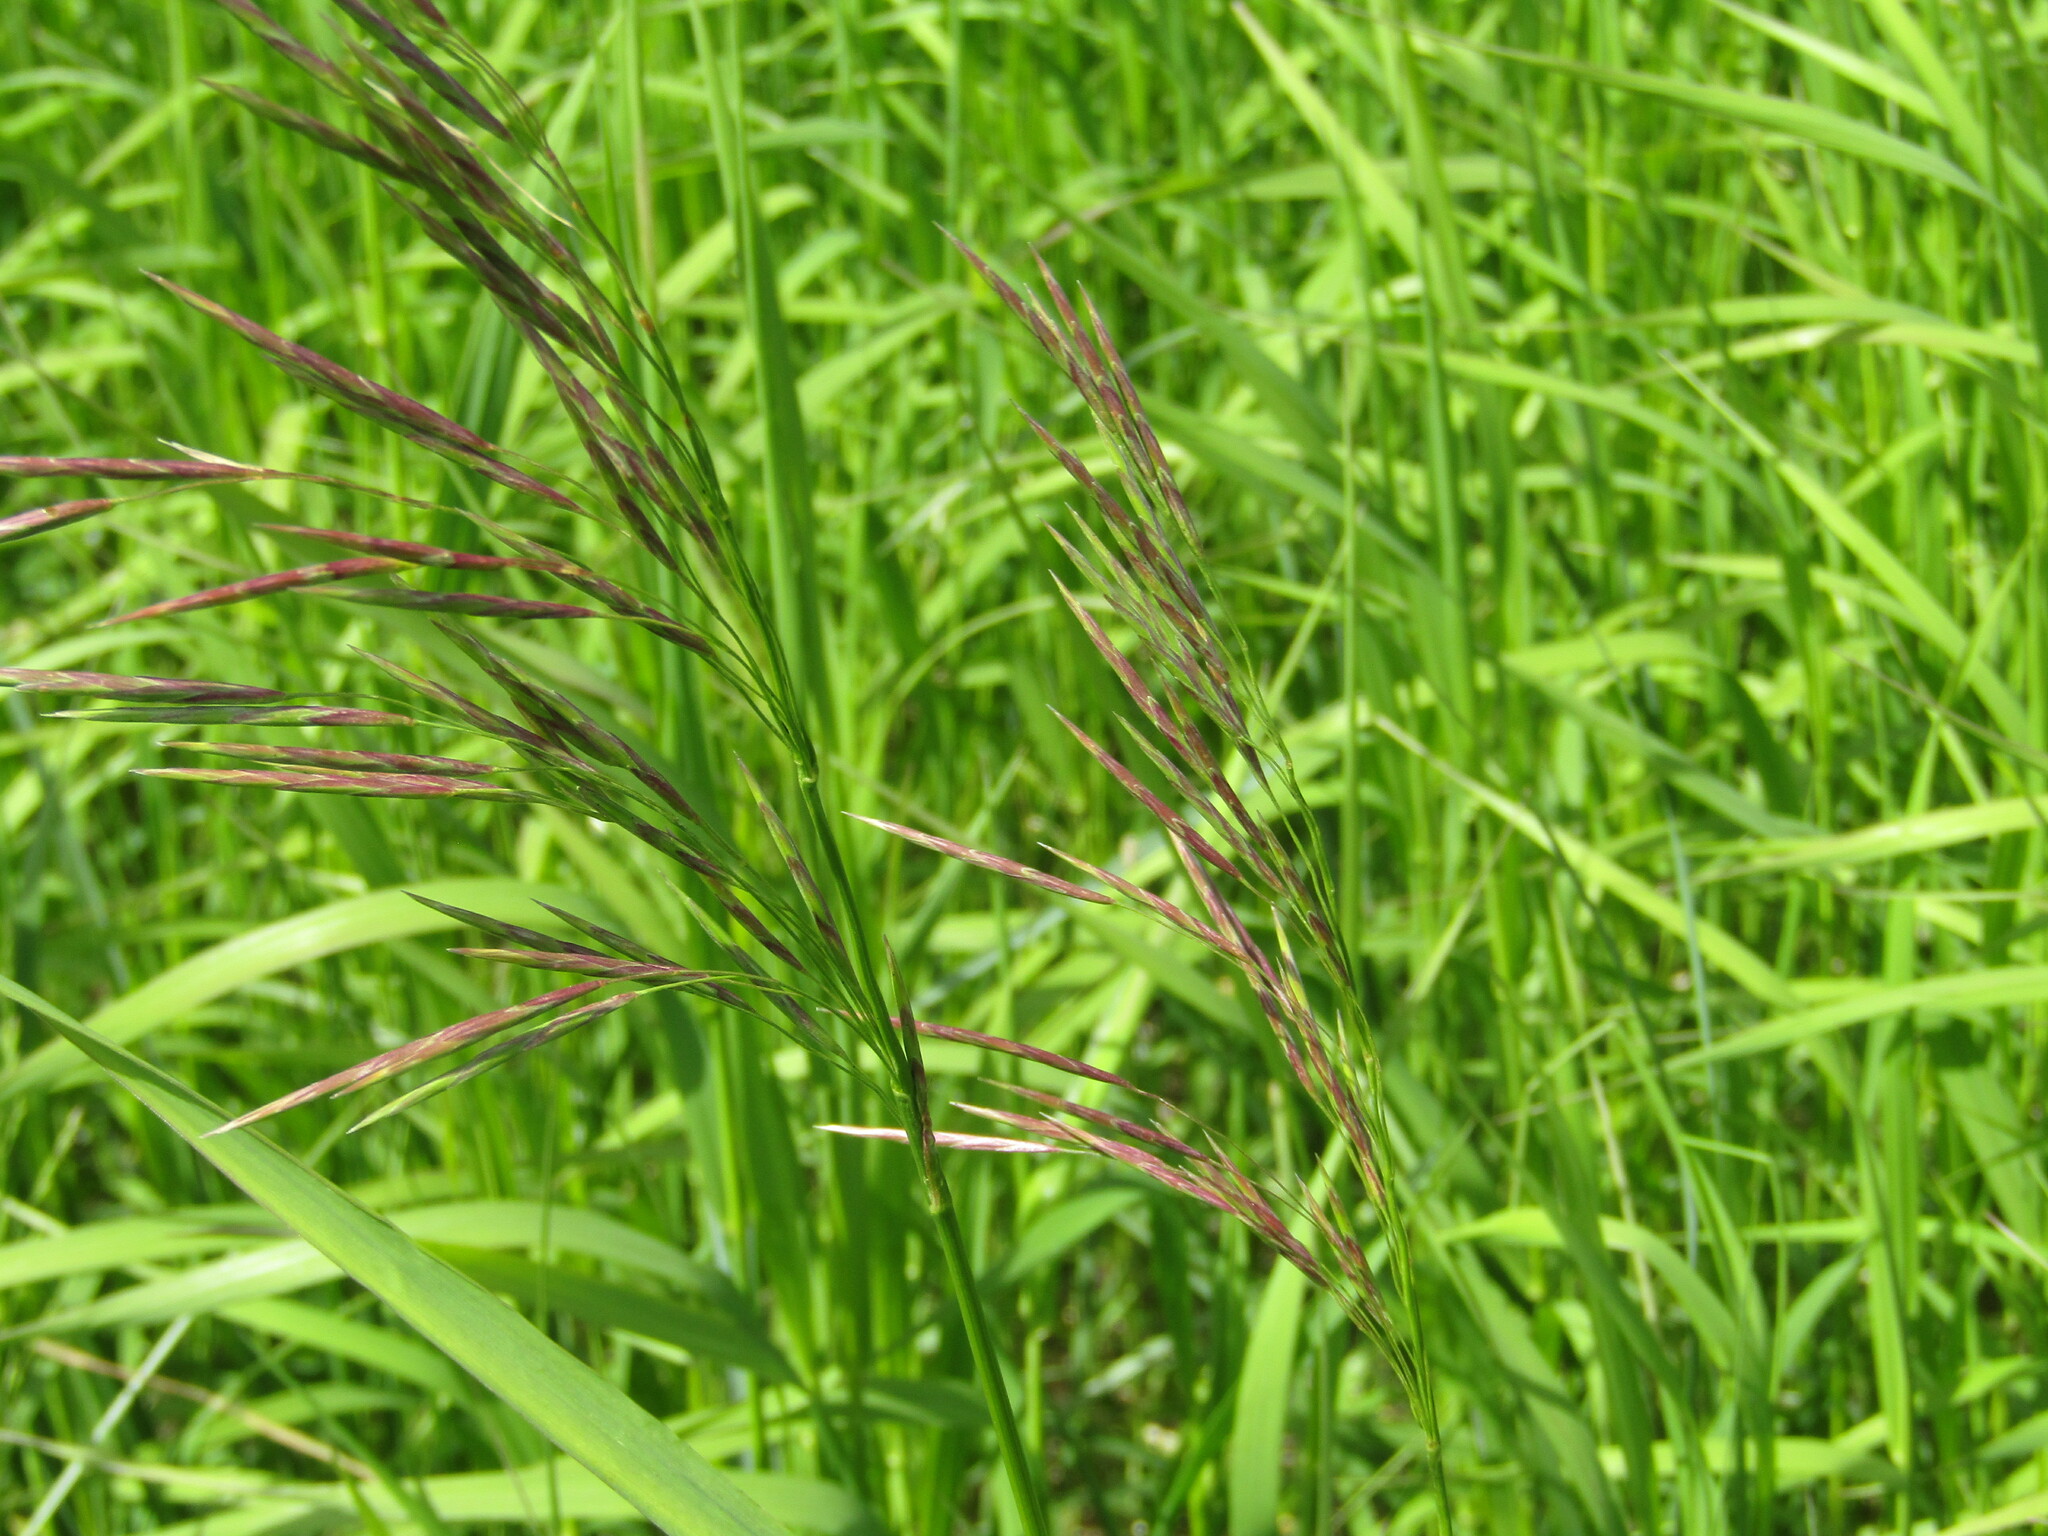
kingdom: Plantae
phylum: Tracheophyta
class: Liliopsida
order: Poales
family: Poaceae
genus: Bromus
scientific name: Bromus inermis
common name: Smooth brome
